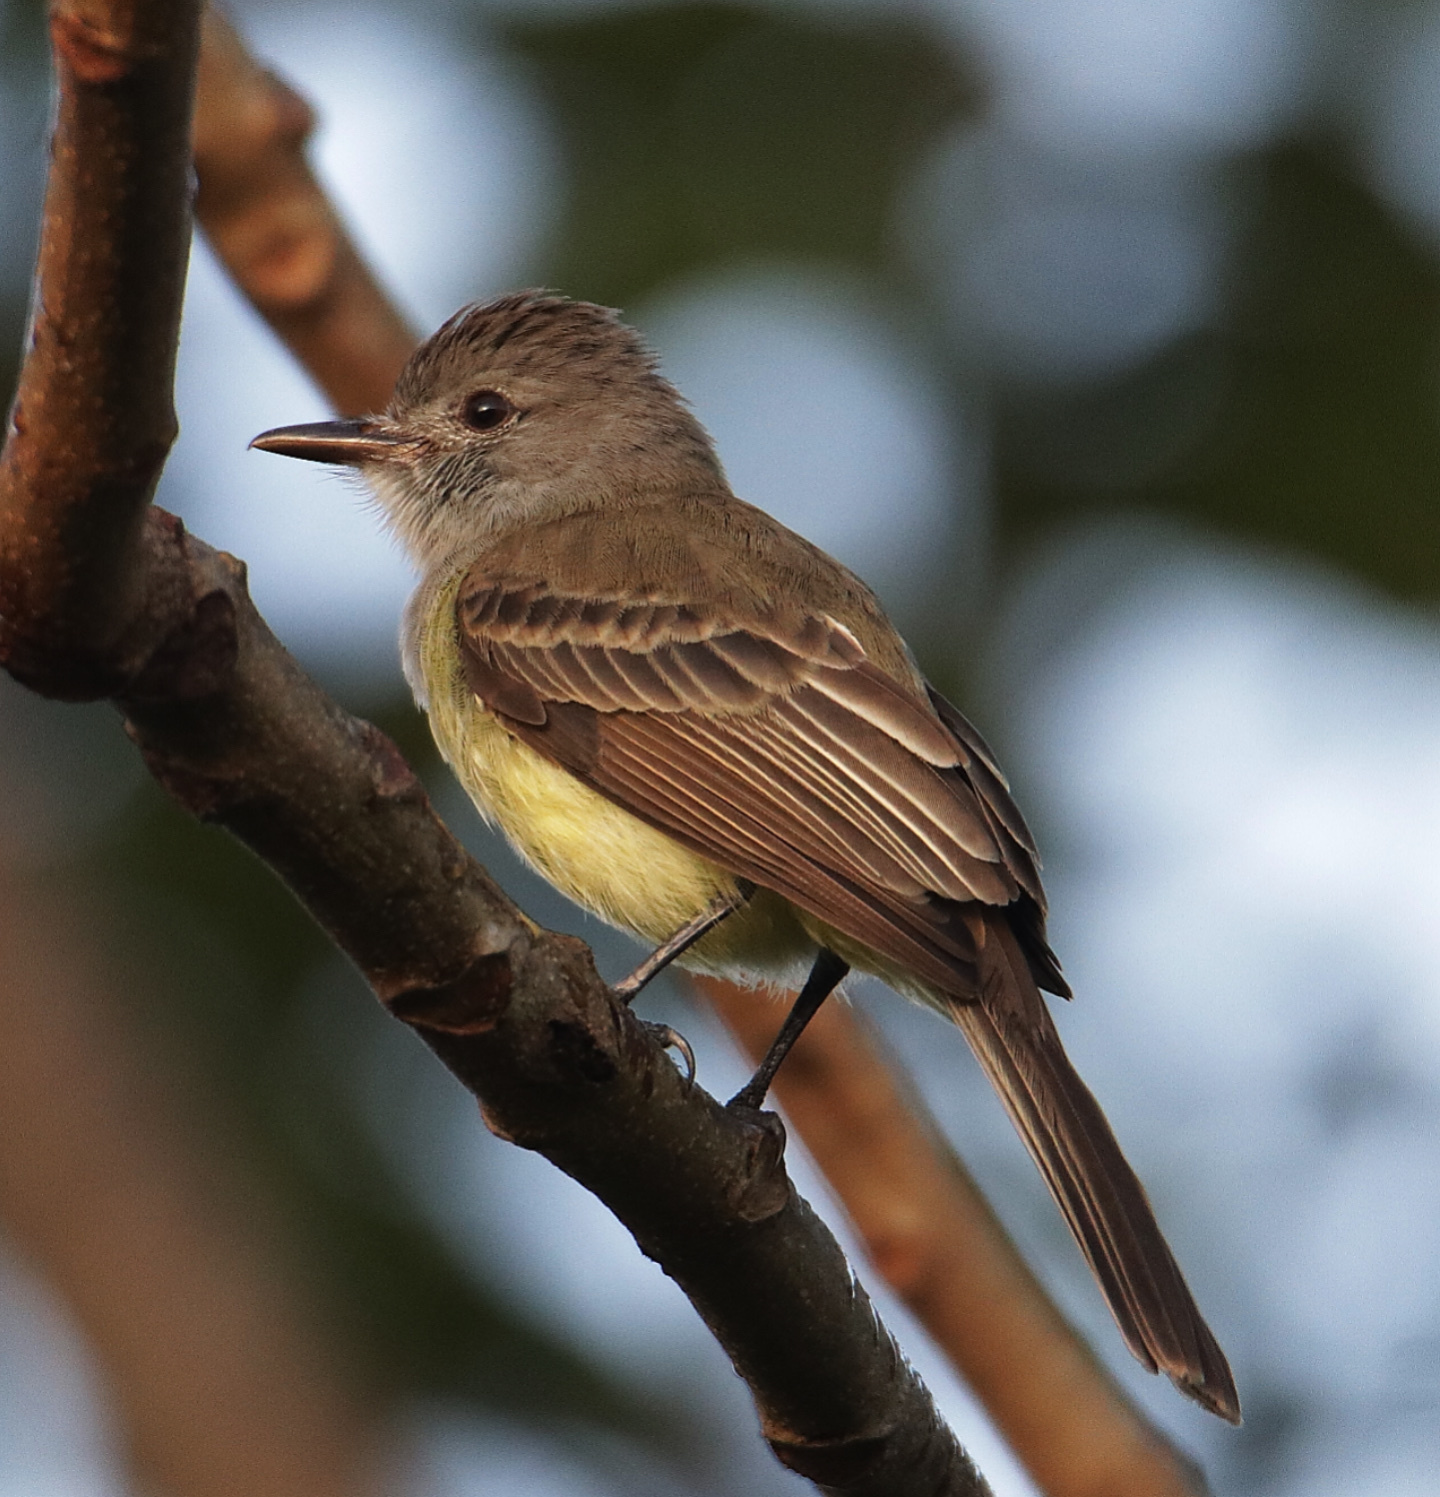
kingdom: Animalia
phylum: Chordata
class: Aves
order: Passeriformes
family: Tyrannidae
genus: Myiarchus
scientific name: Myiarchus panamensis
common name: Panama flycatcher
